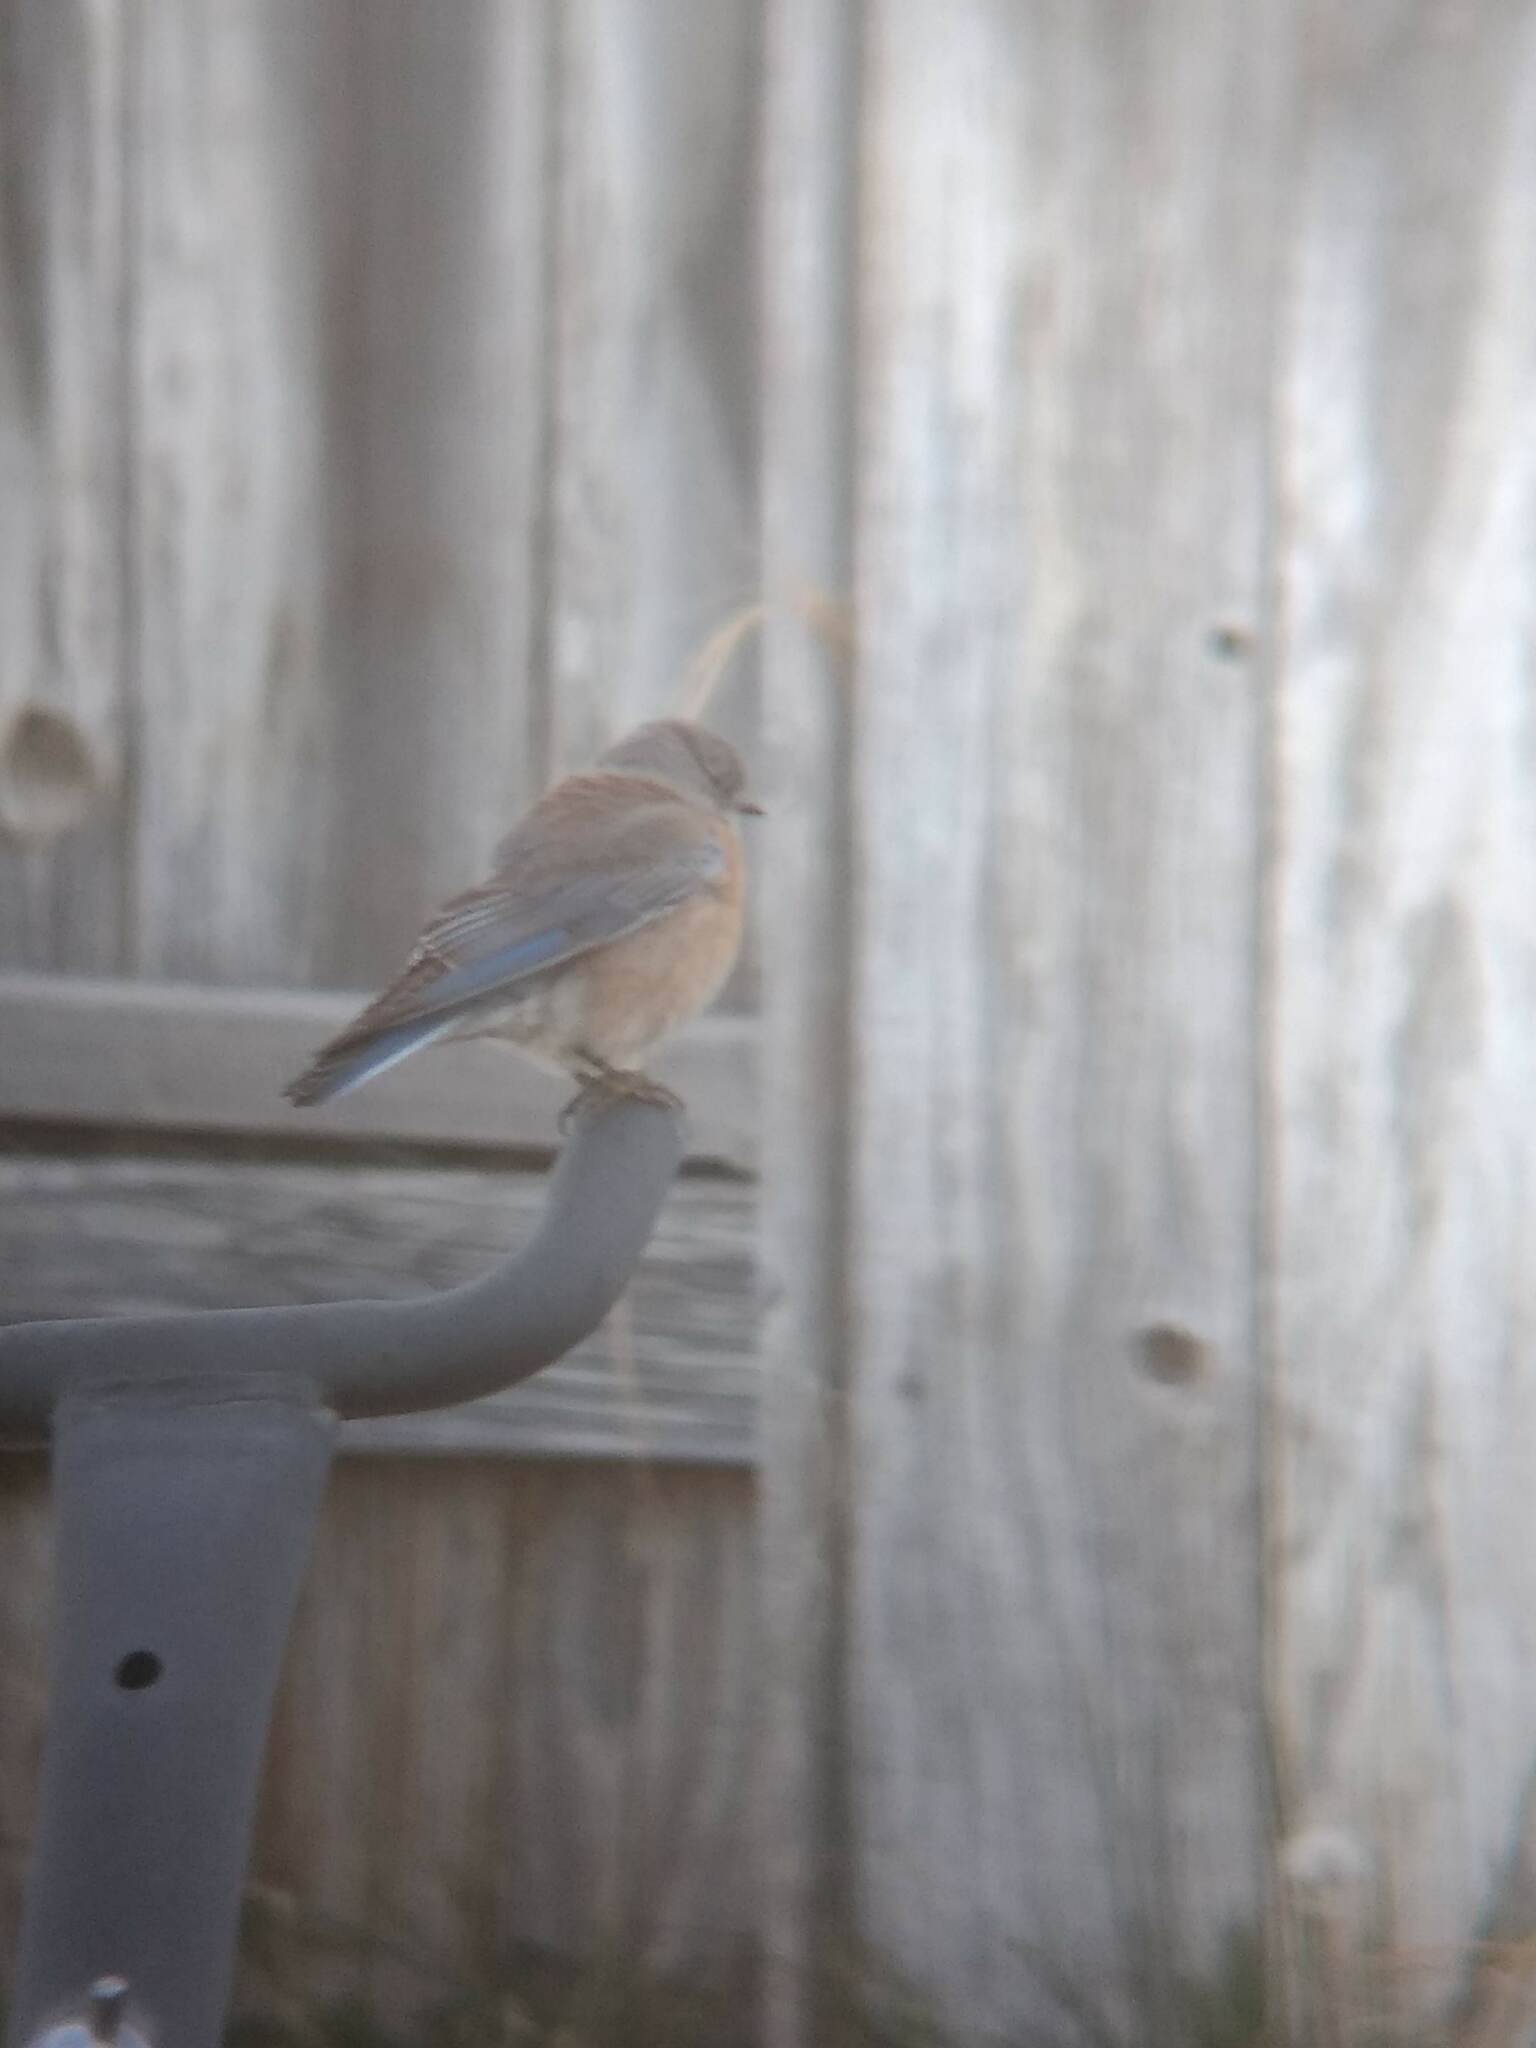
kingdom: Animalia
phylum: Chordata
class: Aves
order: Passeriformes
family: Turdidae
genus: Sialia
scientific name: Sialia mexicana
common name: Western bluebird
